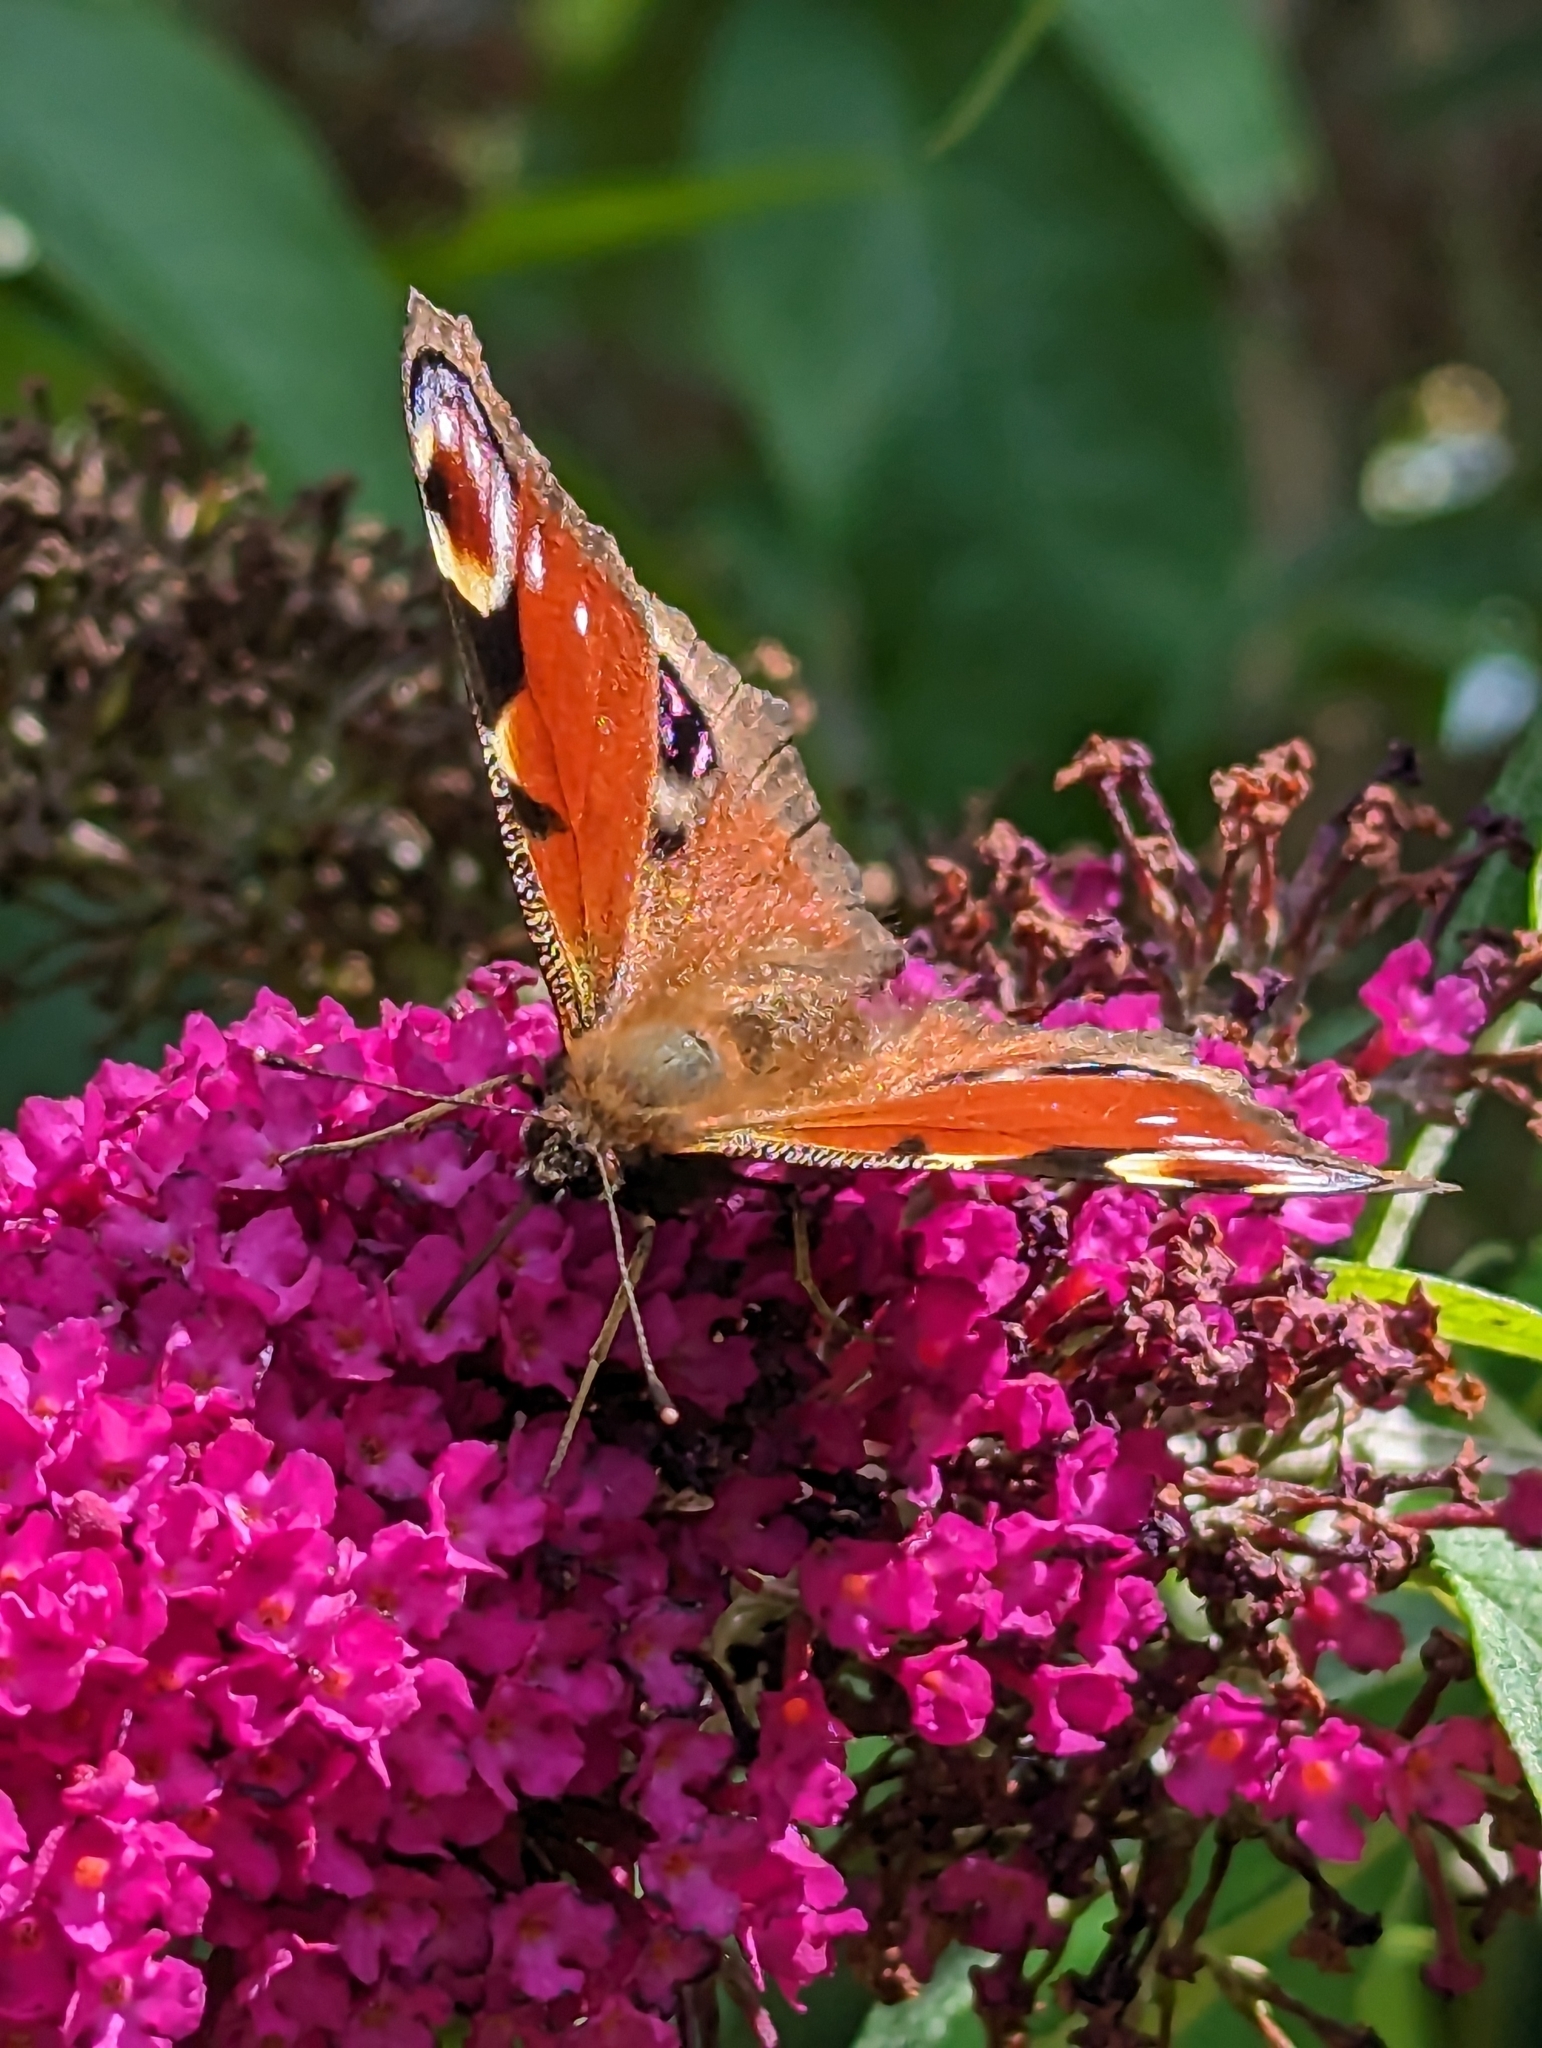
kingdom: Animalia
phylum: Arthropoda
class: Insecta
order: Lepidoptera
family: Nymphalidae
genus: Aglais
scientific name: Aglais io
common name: Peacock
